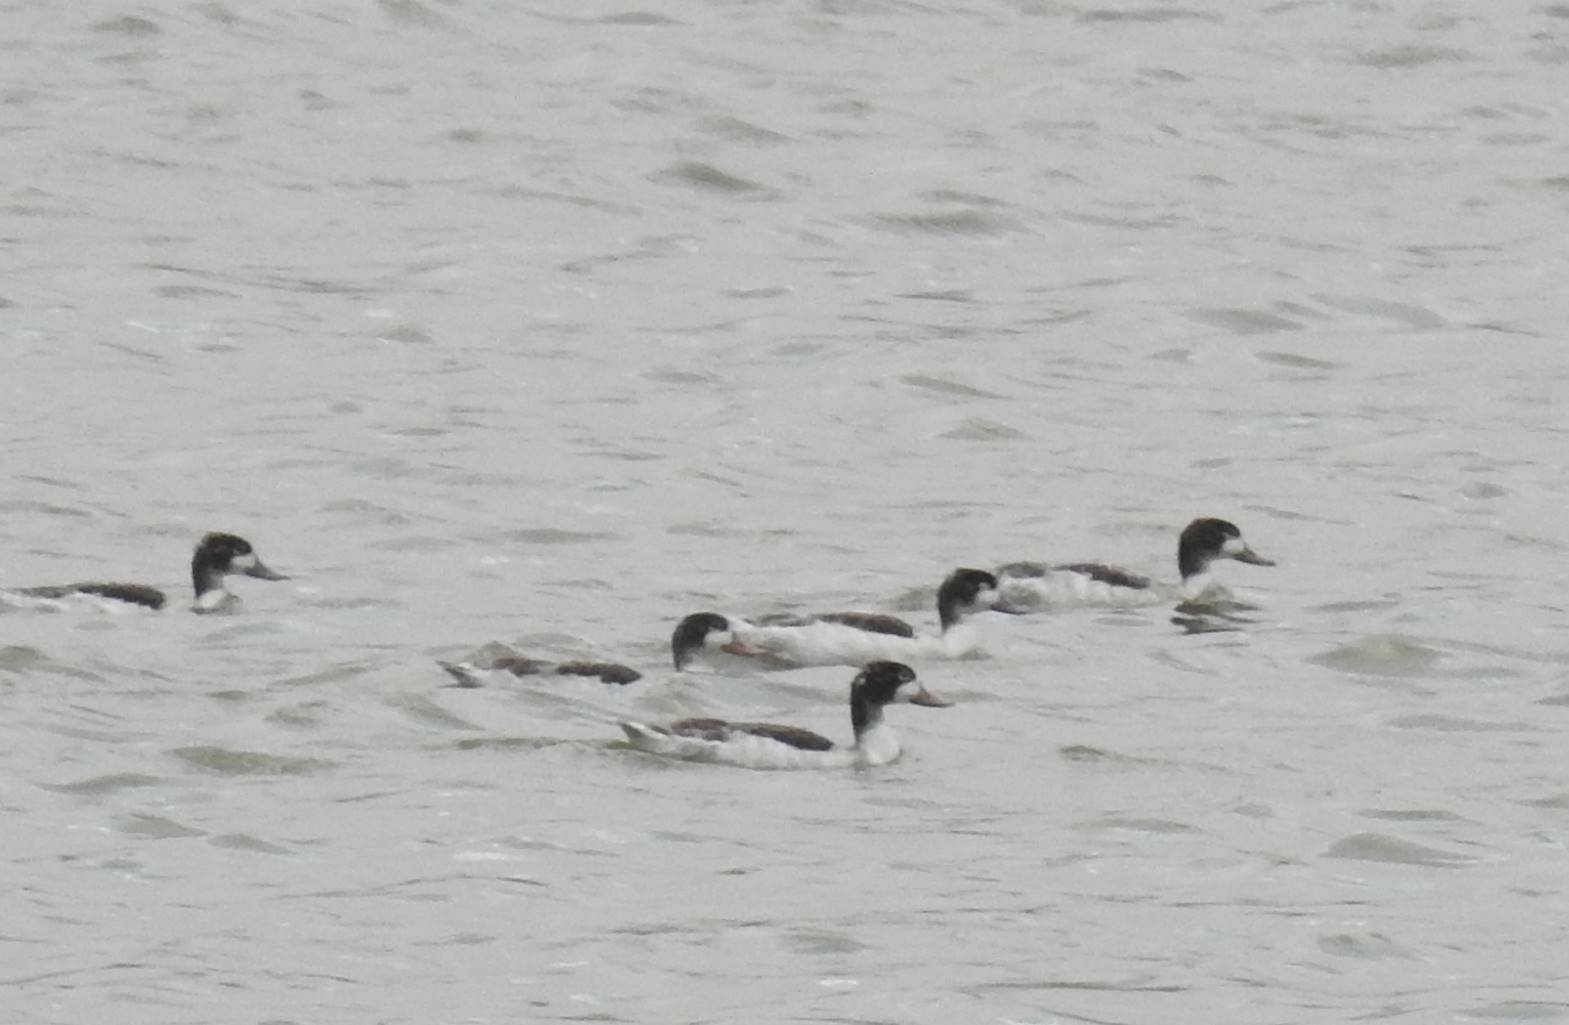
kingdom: Animalia
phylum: Chordata
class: Aves
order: Anseriformes
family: Anatidae
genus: Tadorna
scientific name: Tadorna tadorna
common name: Common shelduck
